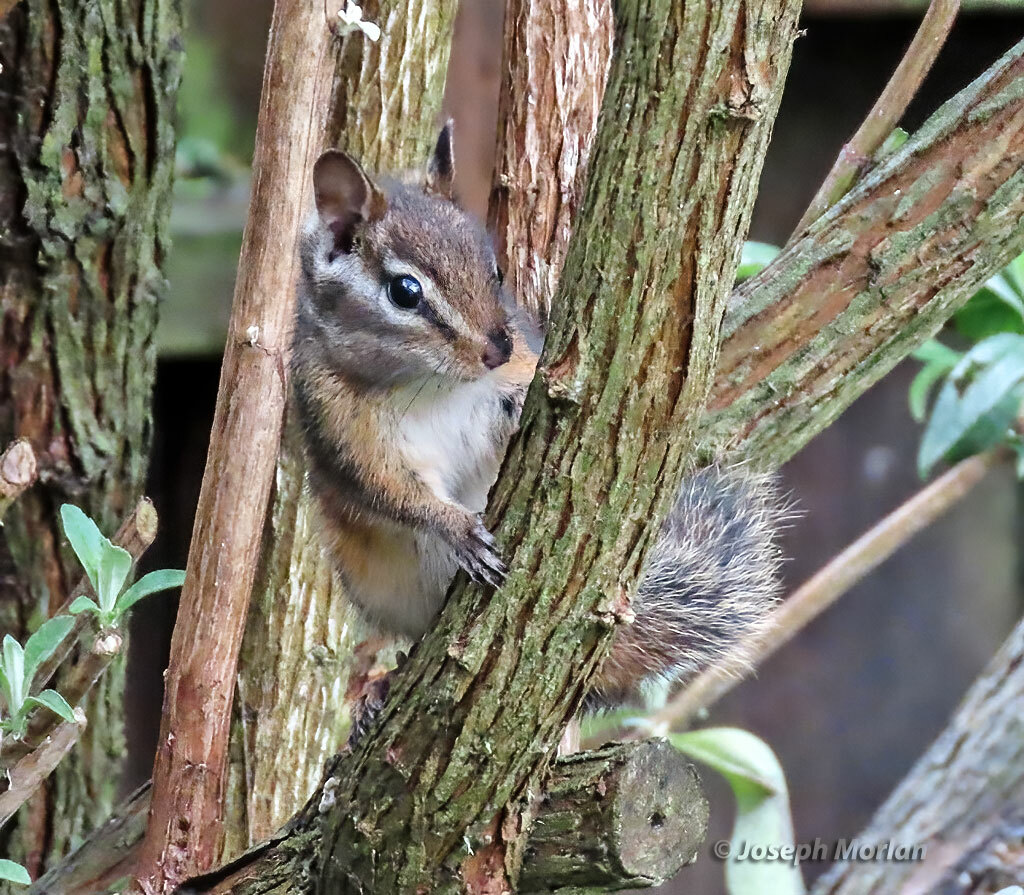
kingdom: Animalia
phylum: Chordata
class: Mammalia
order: Rodentia
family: Sciuridae
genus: Tamias
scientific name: Tamias merriami
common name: Merriam's chipmunk
